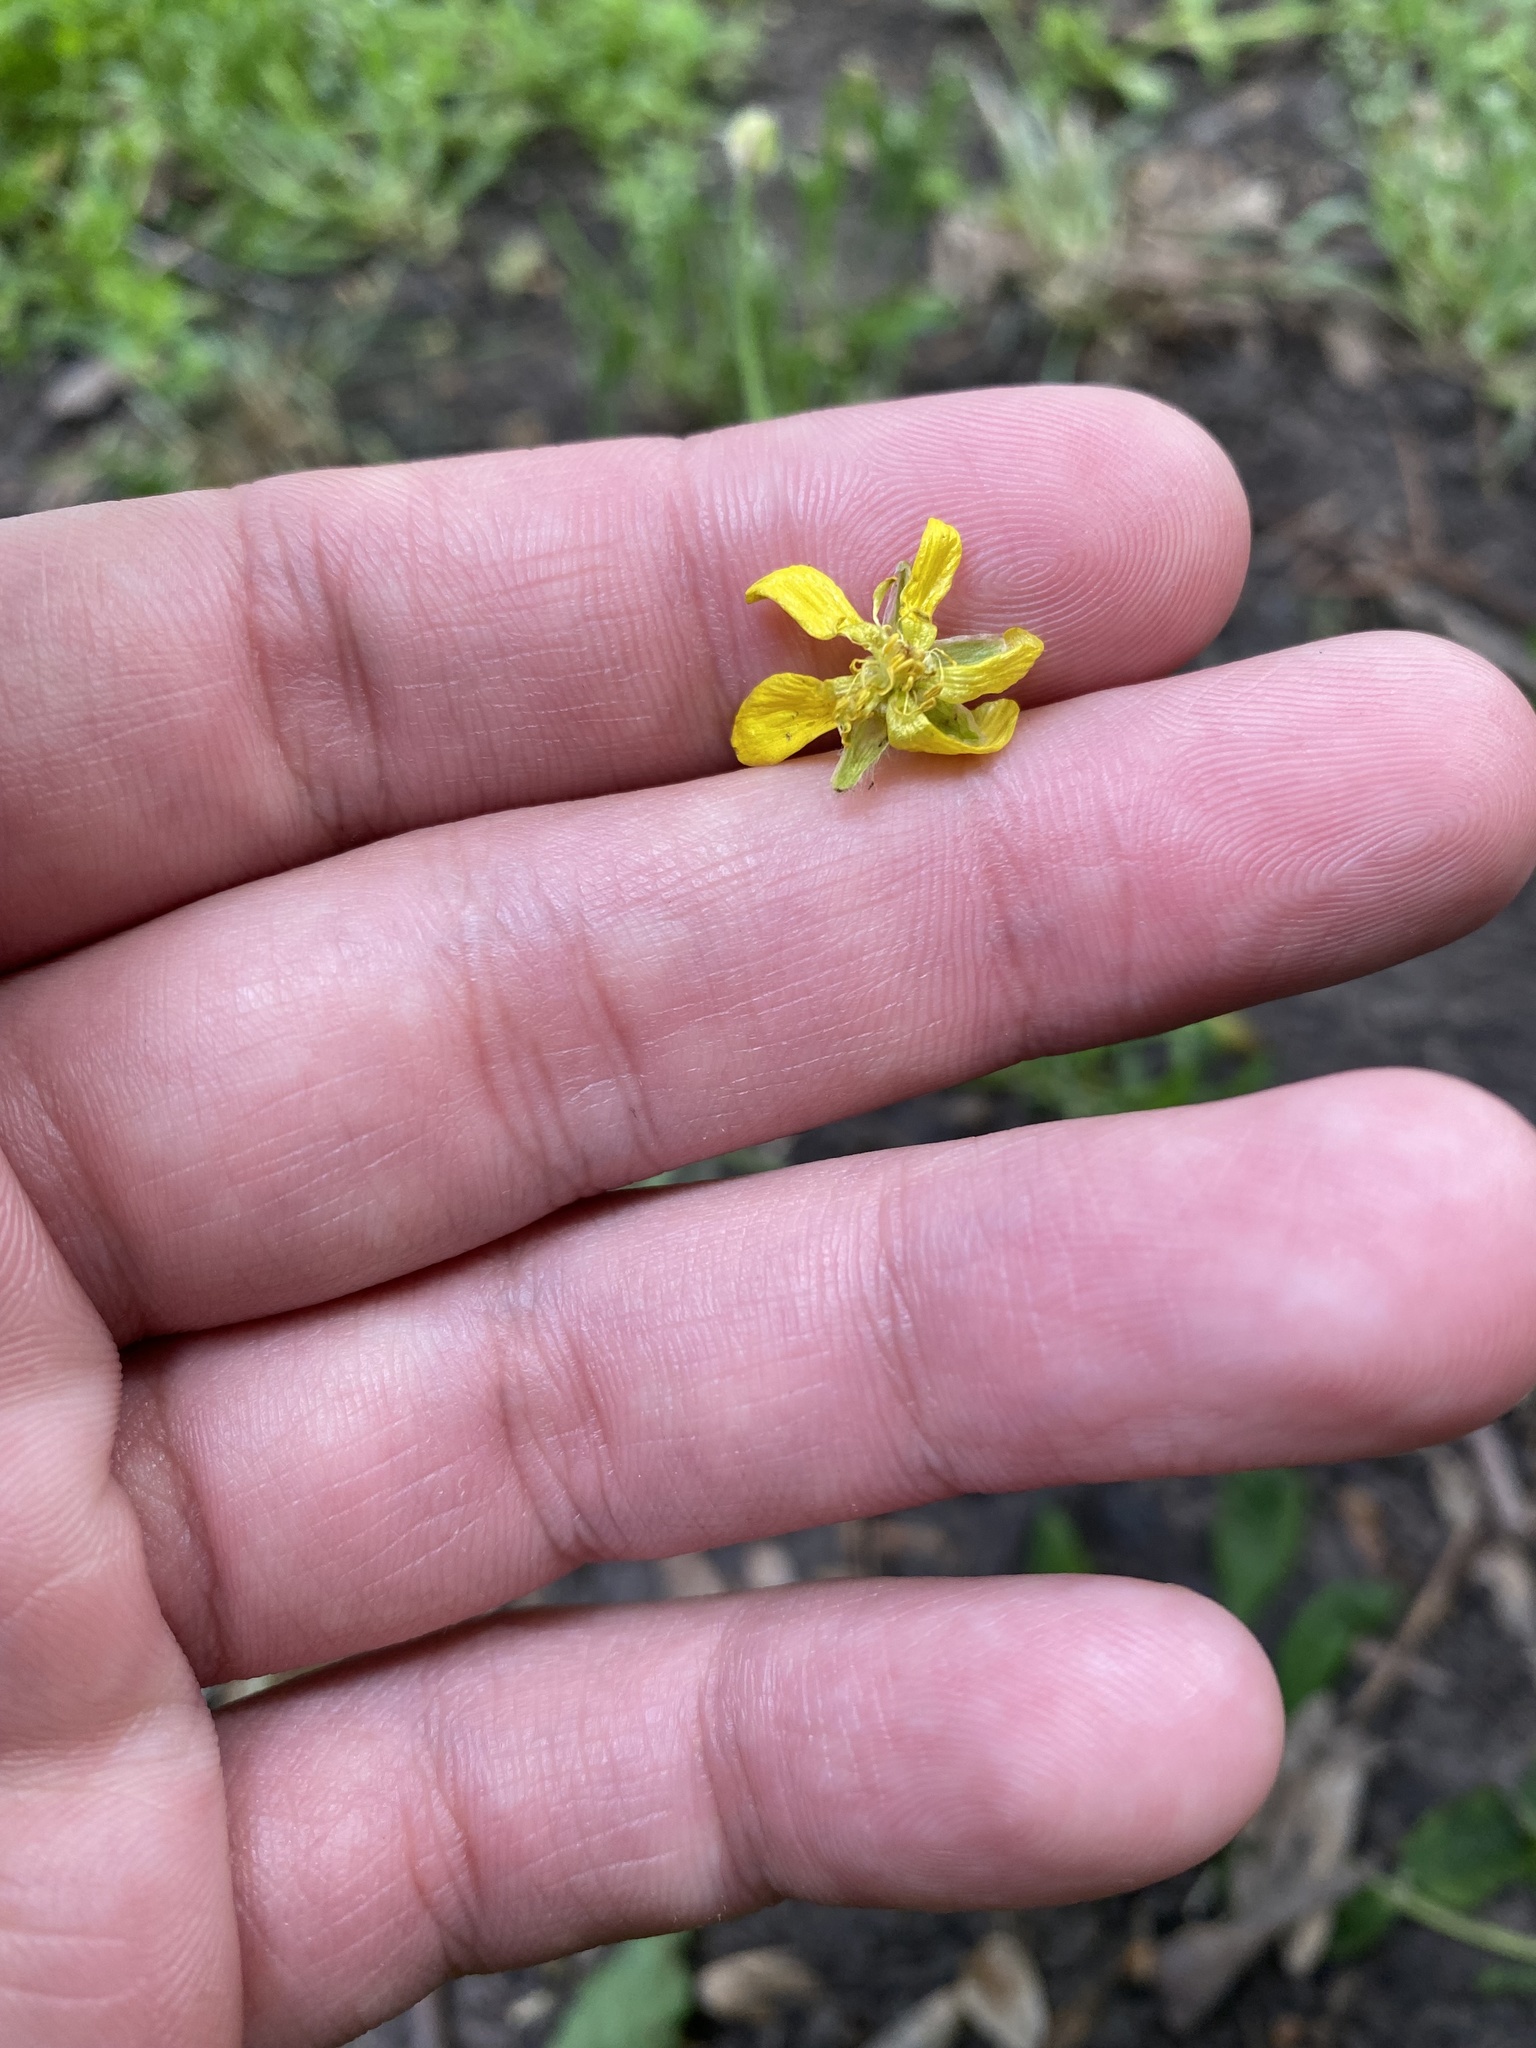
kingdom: Plantae
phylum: Tracheophyta
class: Magnoliopsida
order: Ranunculales
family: Ranunculaceae
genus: Ranunculus
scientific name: Ranunculus oxyspermus
